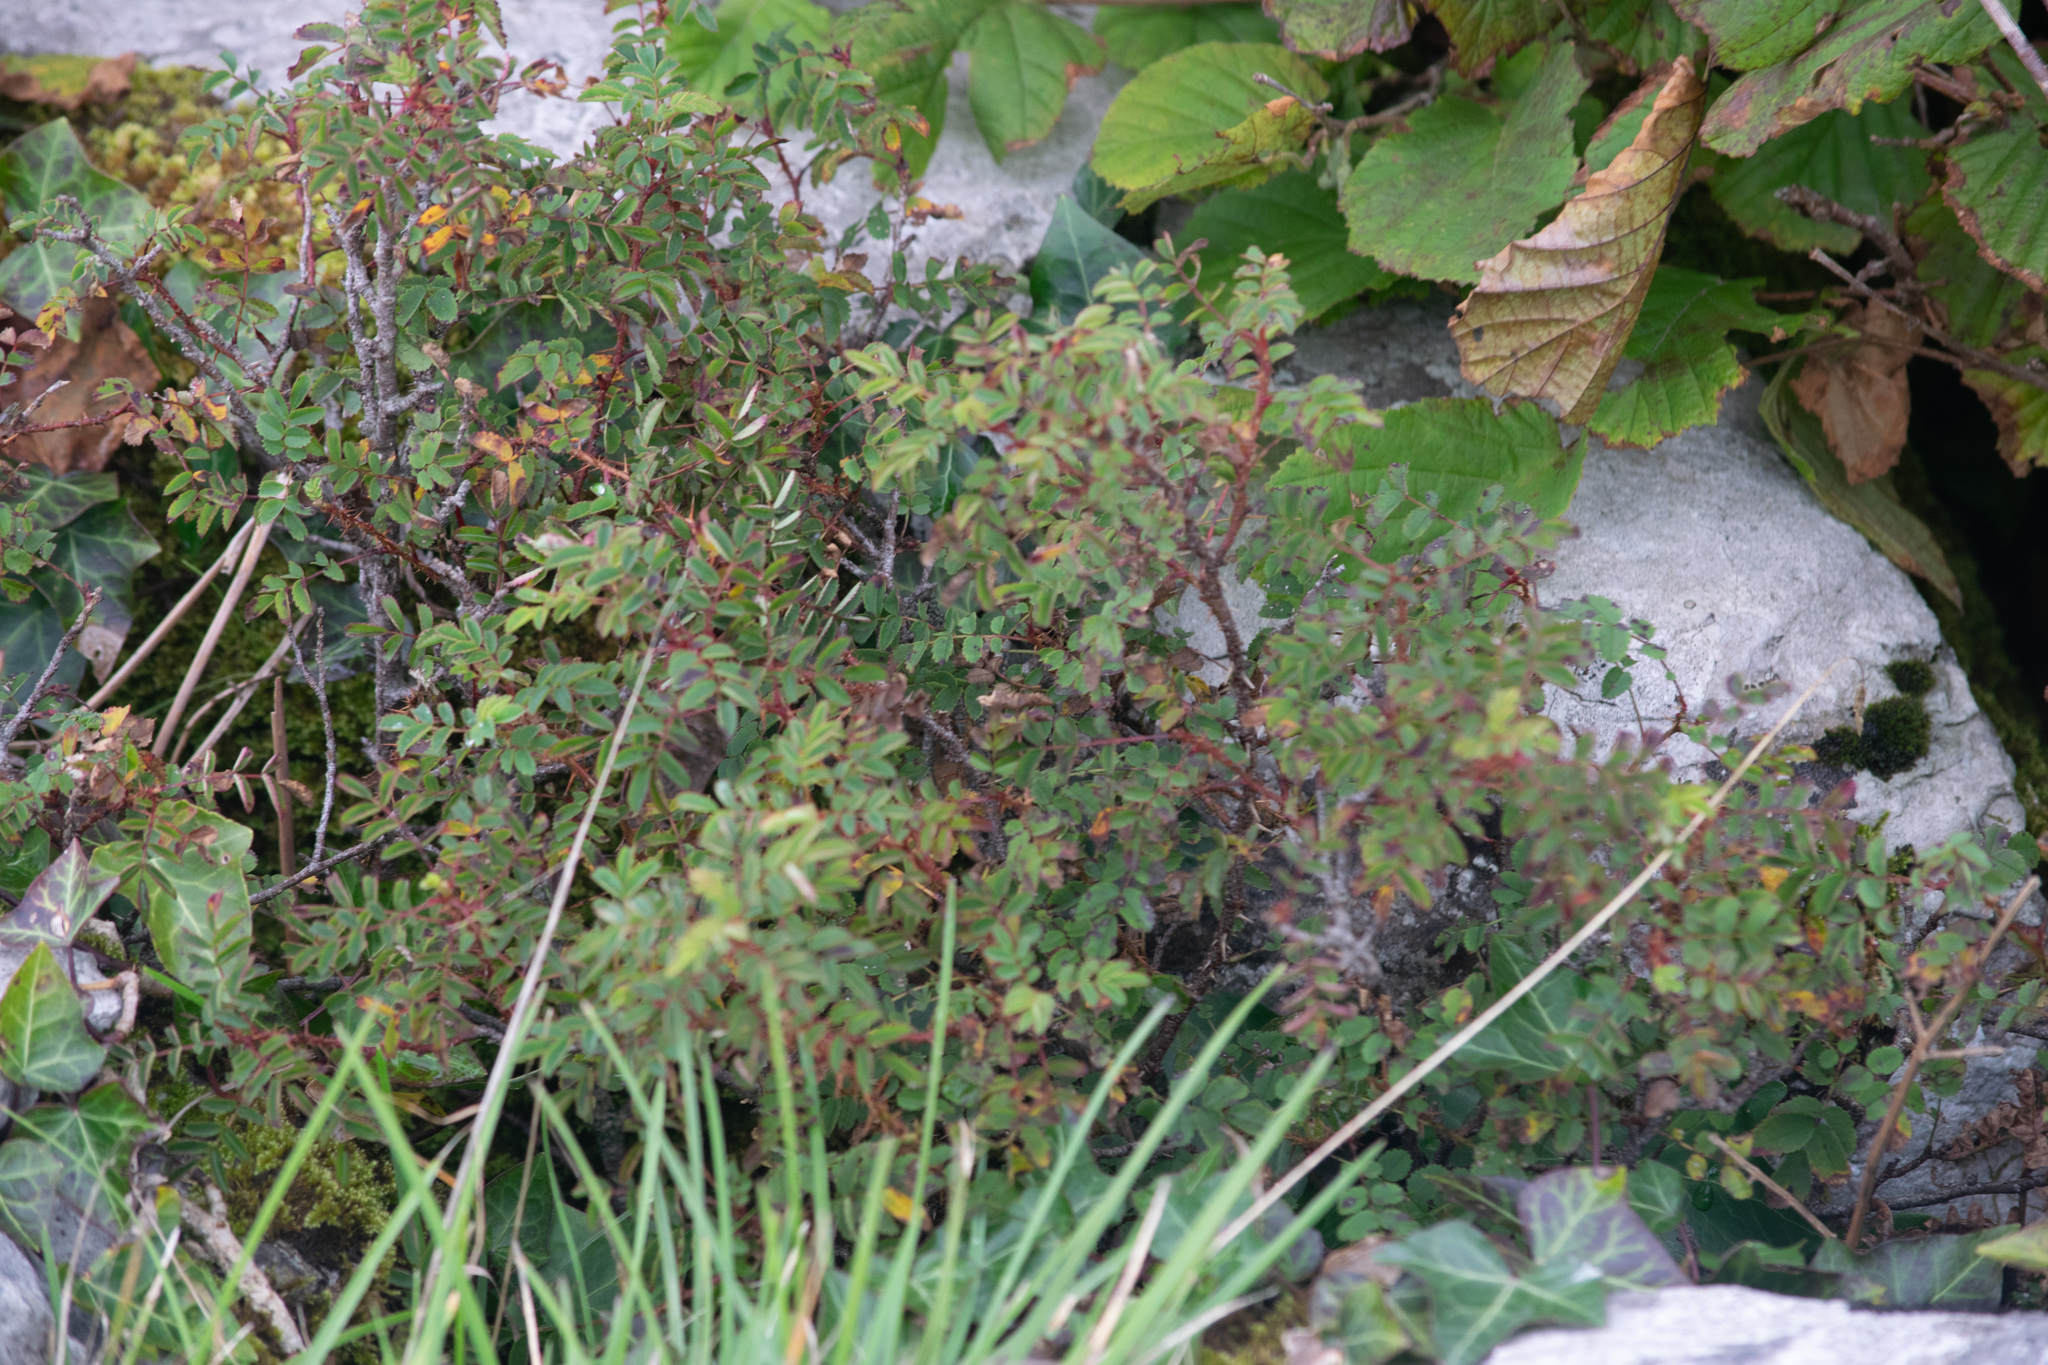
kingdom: Plantae
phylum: Tracheophyta
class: Magnoliopsida
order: Rosales
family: Rosaceae
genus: Rosa
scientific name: Rosa spinosissima
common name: Burnet rose
